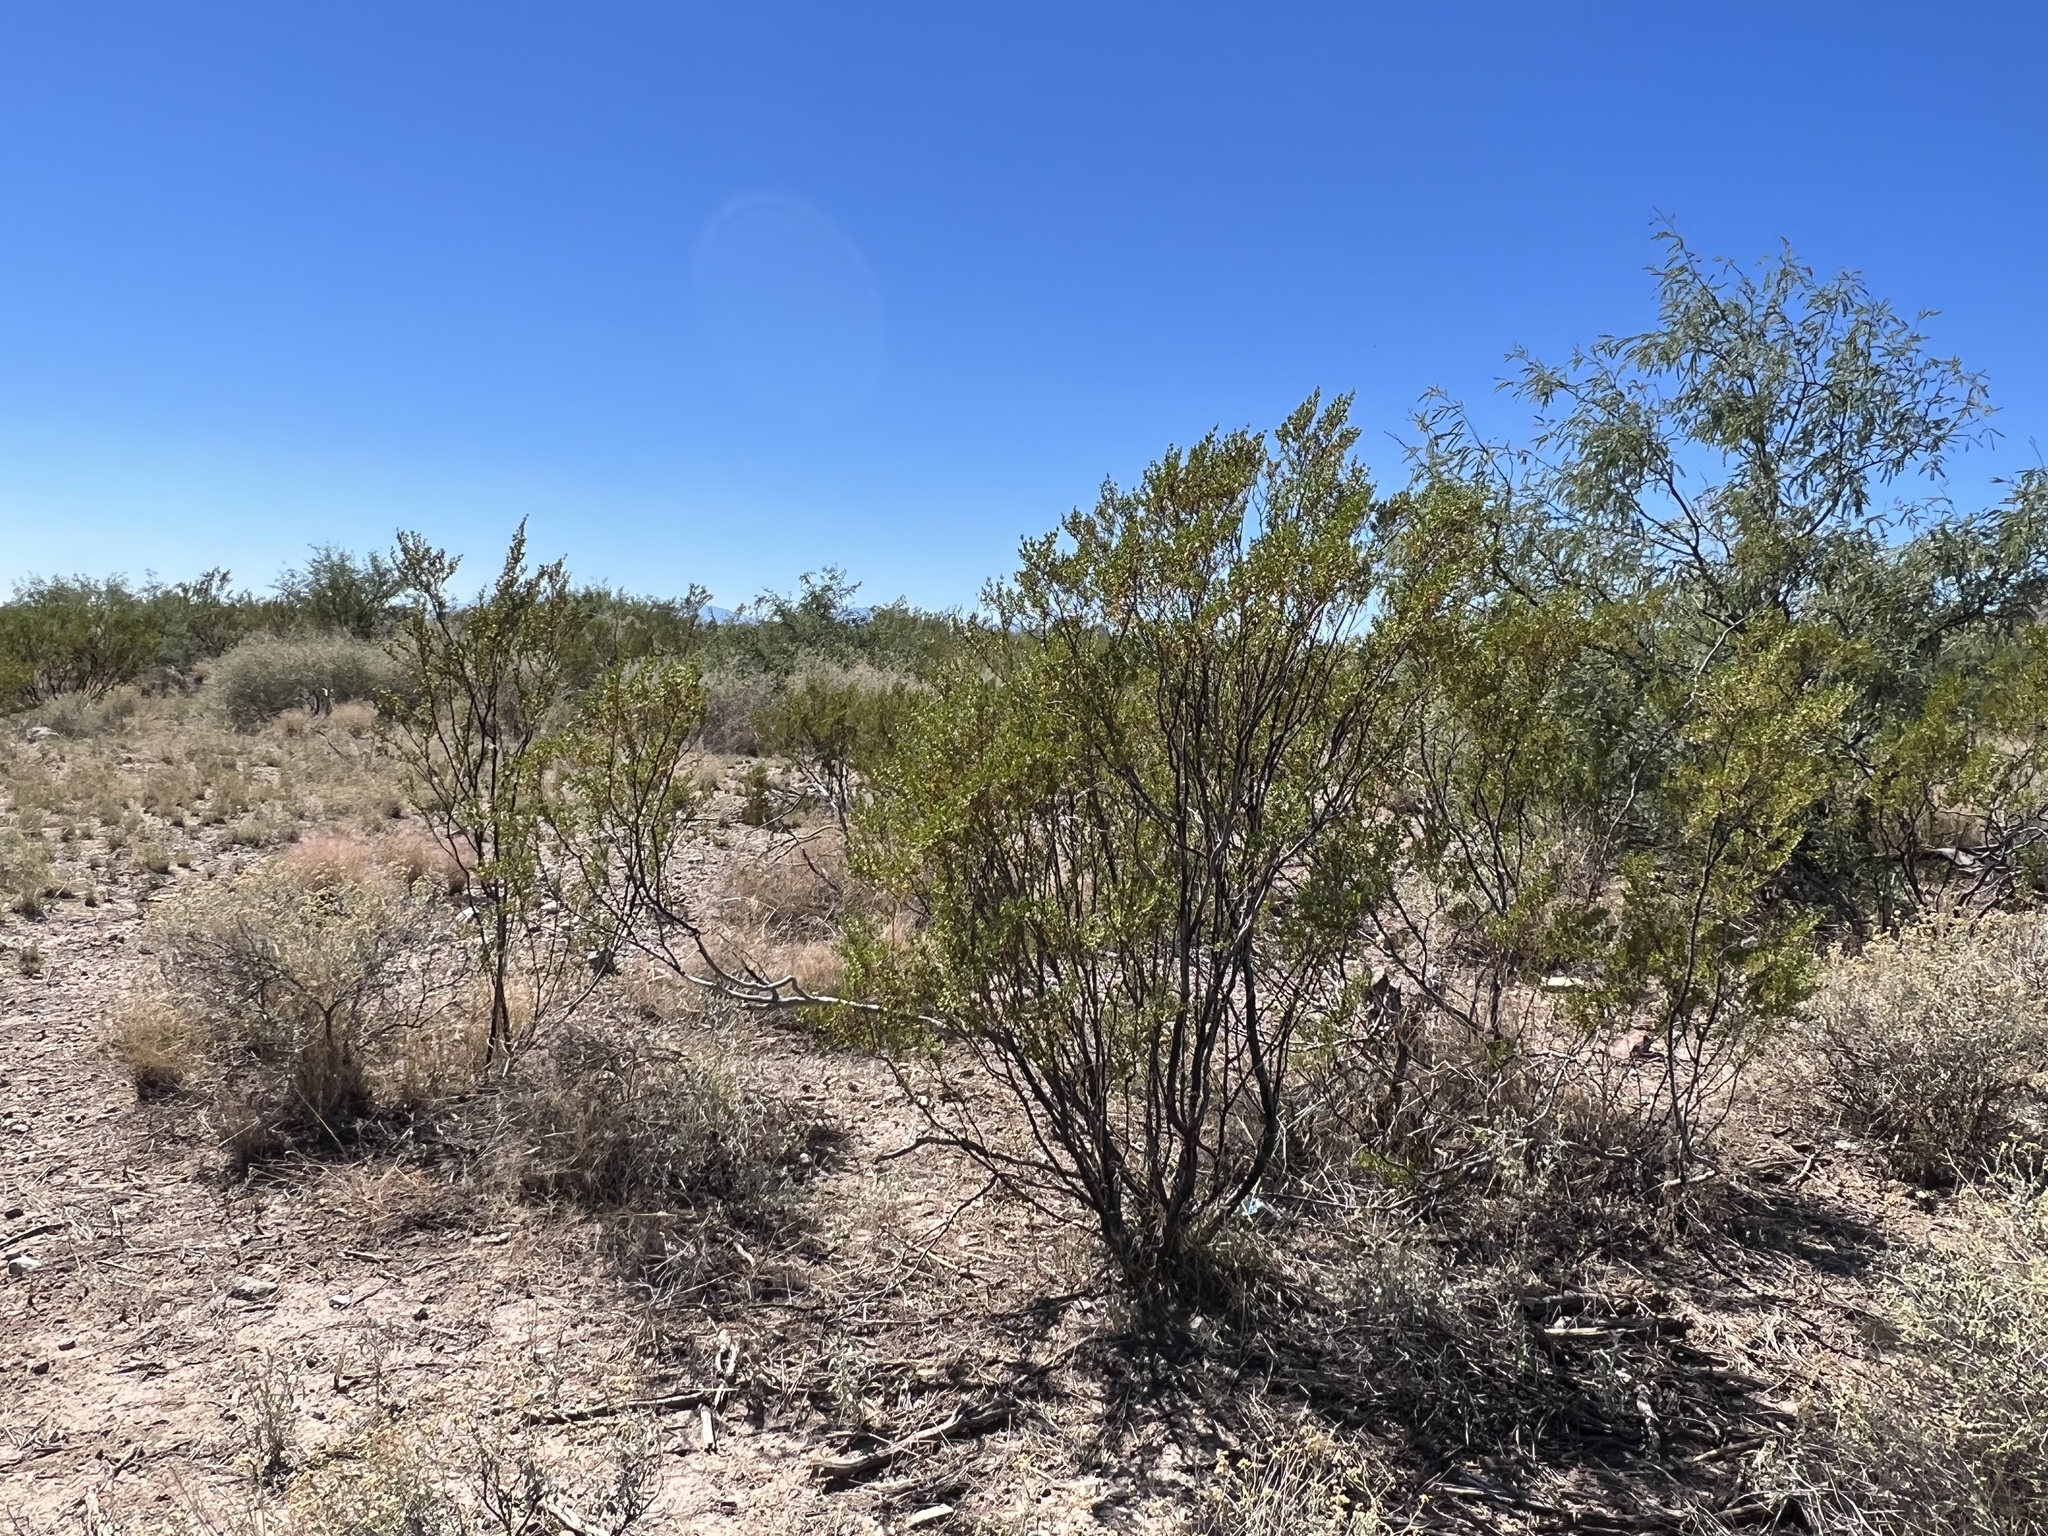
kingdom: Plantae
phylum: Tracheophyta
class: Magnoliopsida
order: Zygophyllales
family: Zygophyllaceae
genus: Larrea
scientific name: Larrea tridentata
